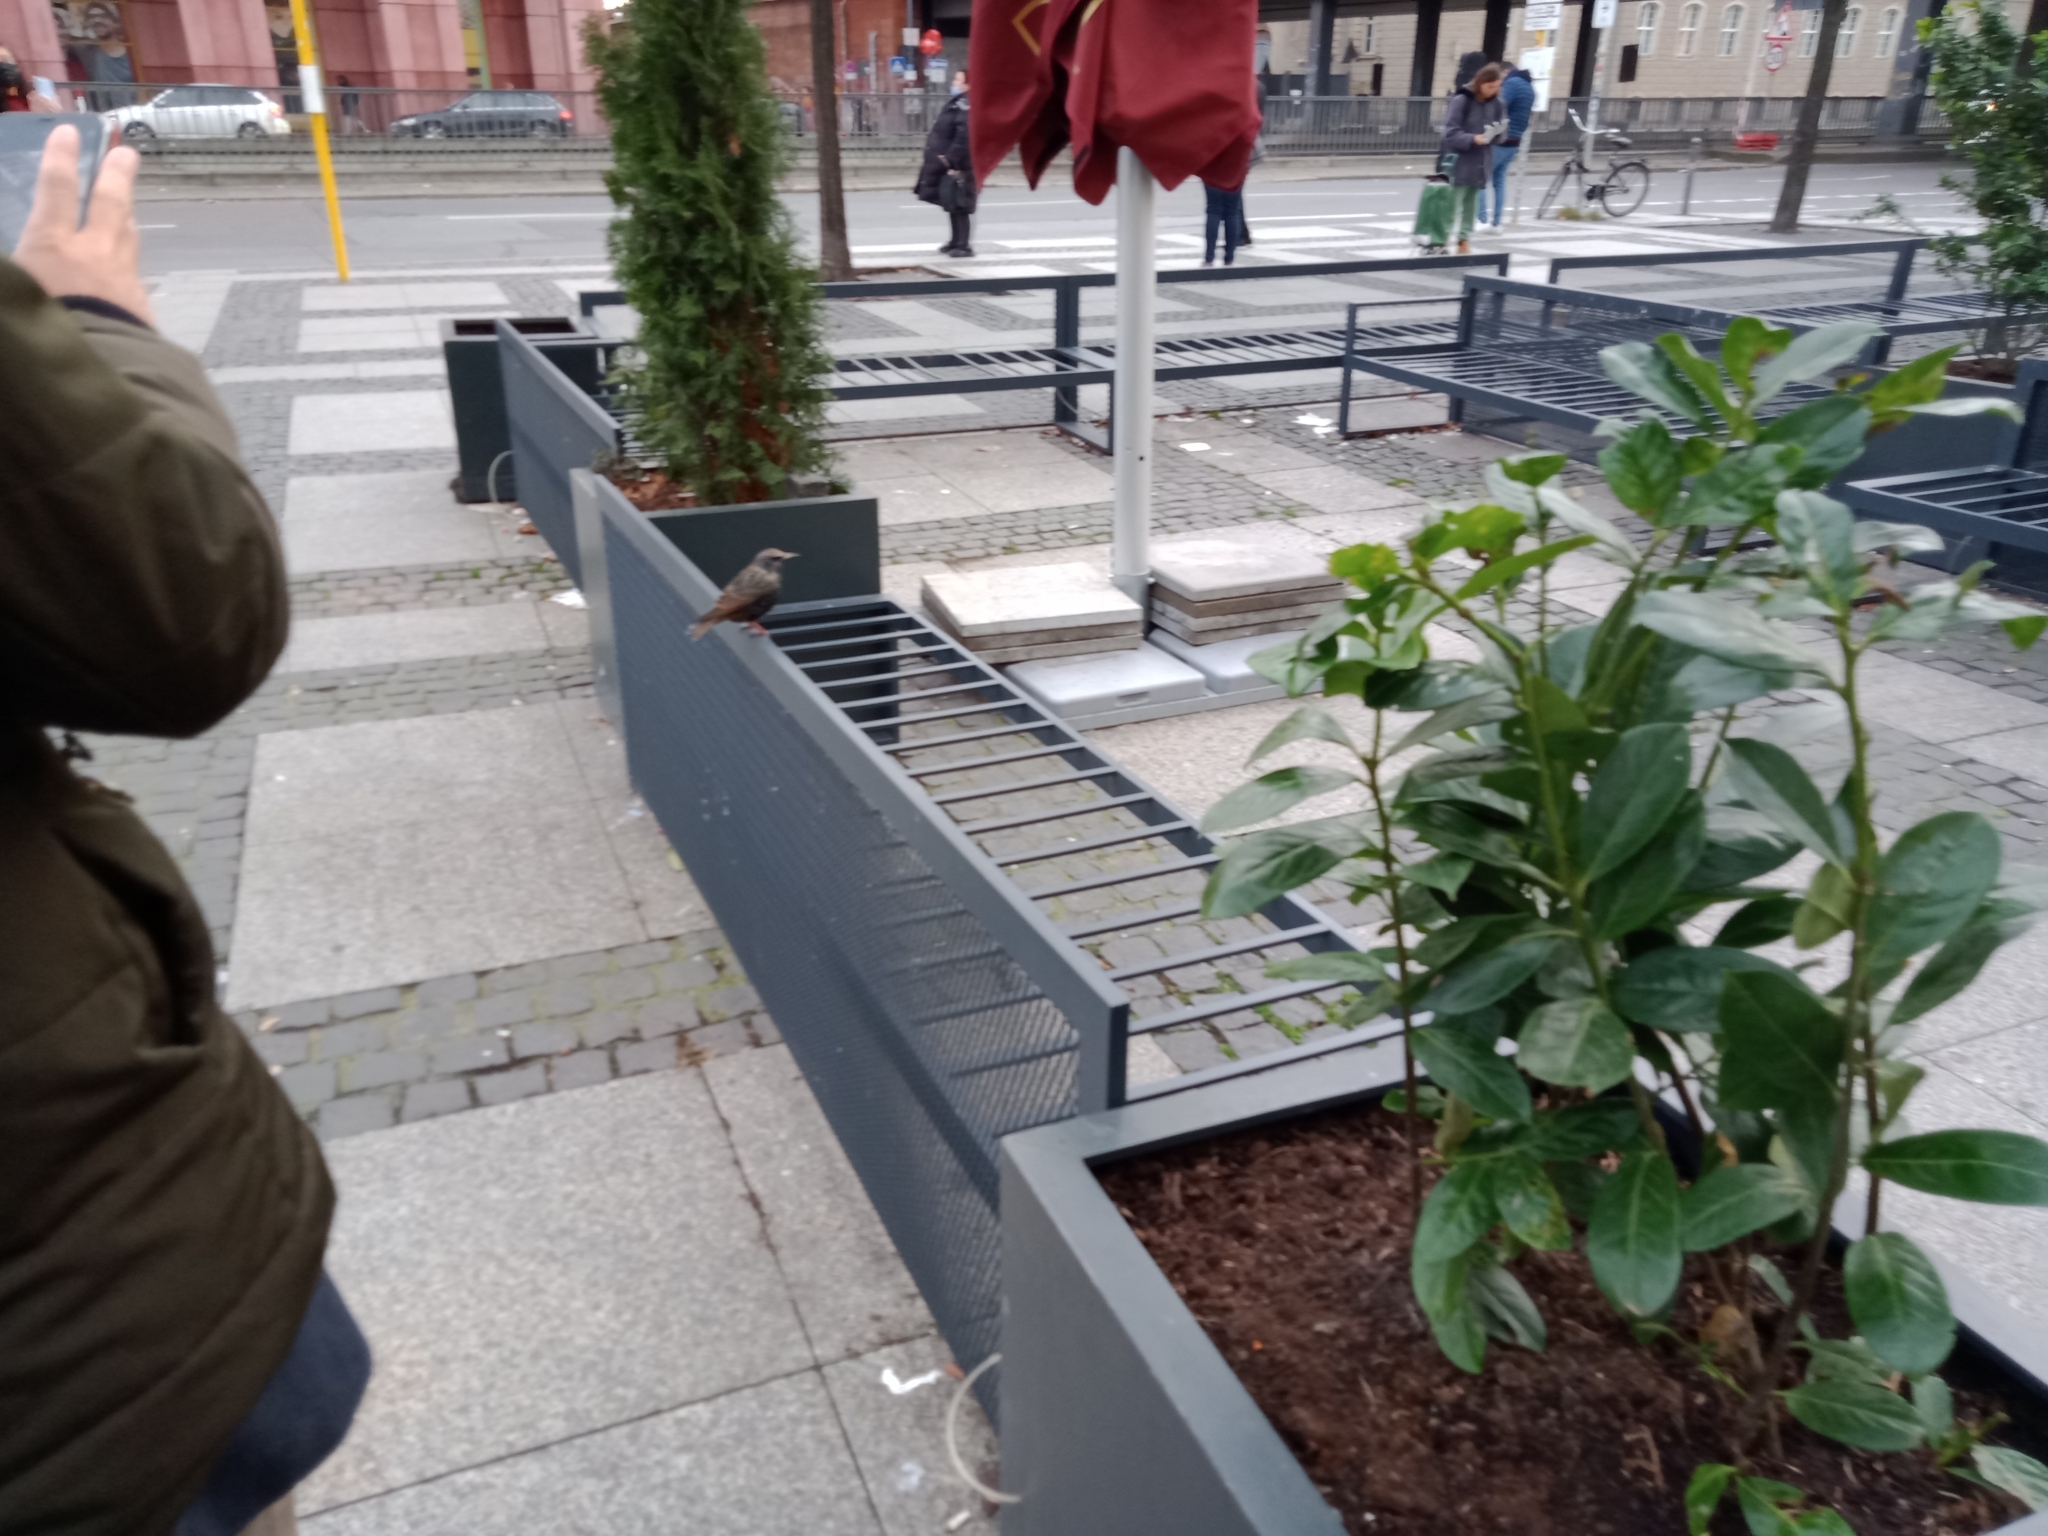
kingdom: Animalia
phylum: Chordata
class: Aves
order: Passeriformes
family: Sturnidae
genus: Sturnus
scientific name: Sturnus vulgaris
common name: Common starling
